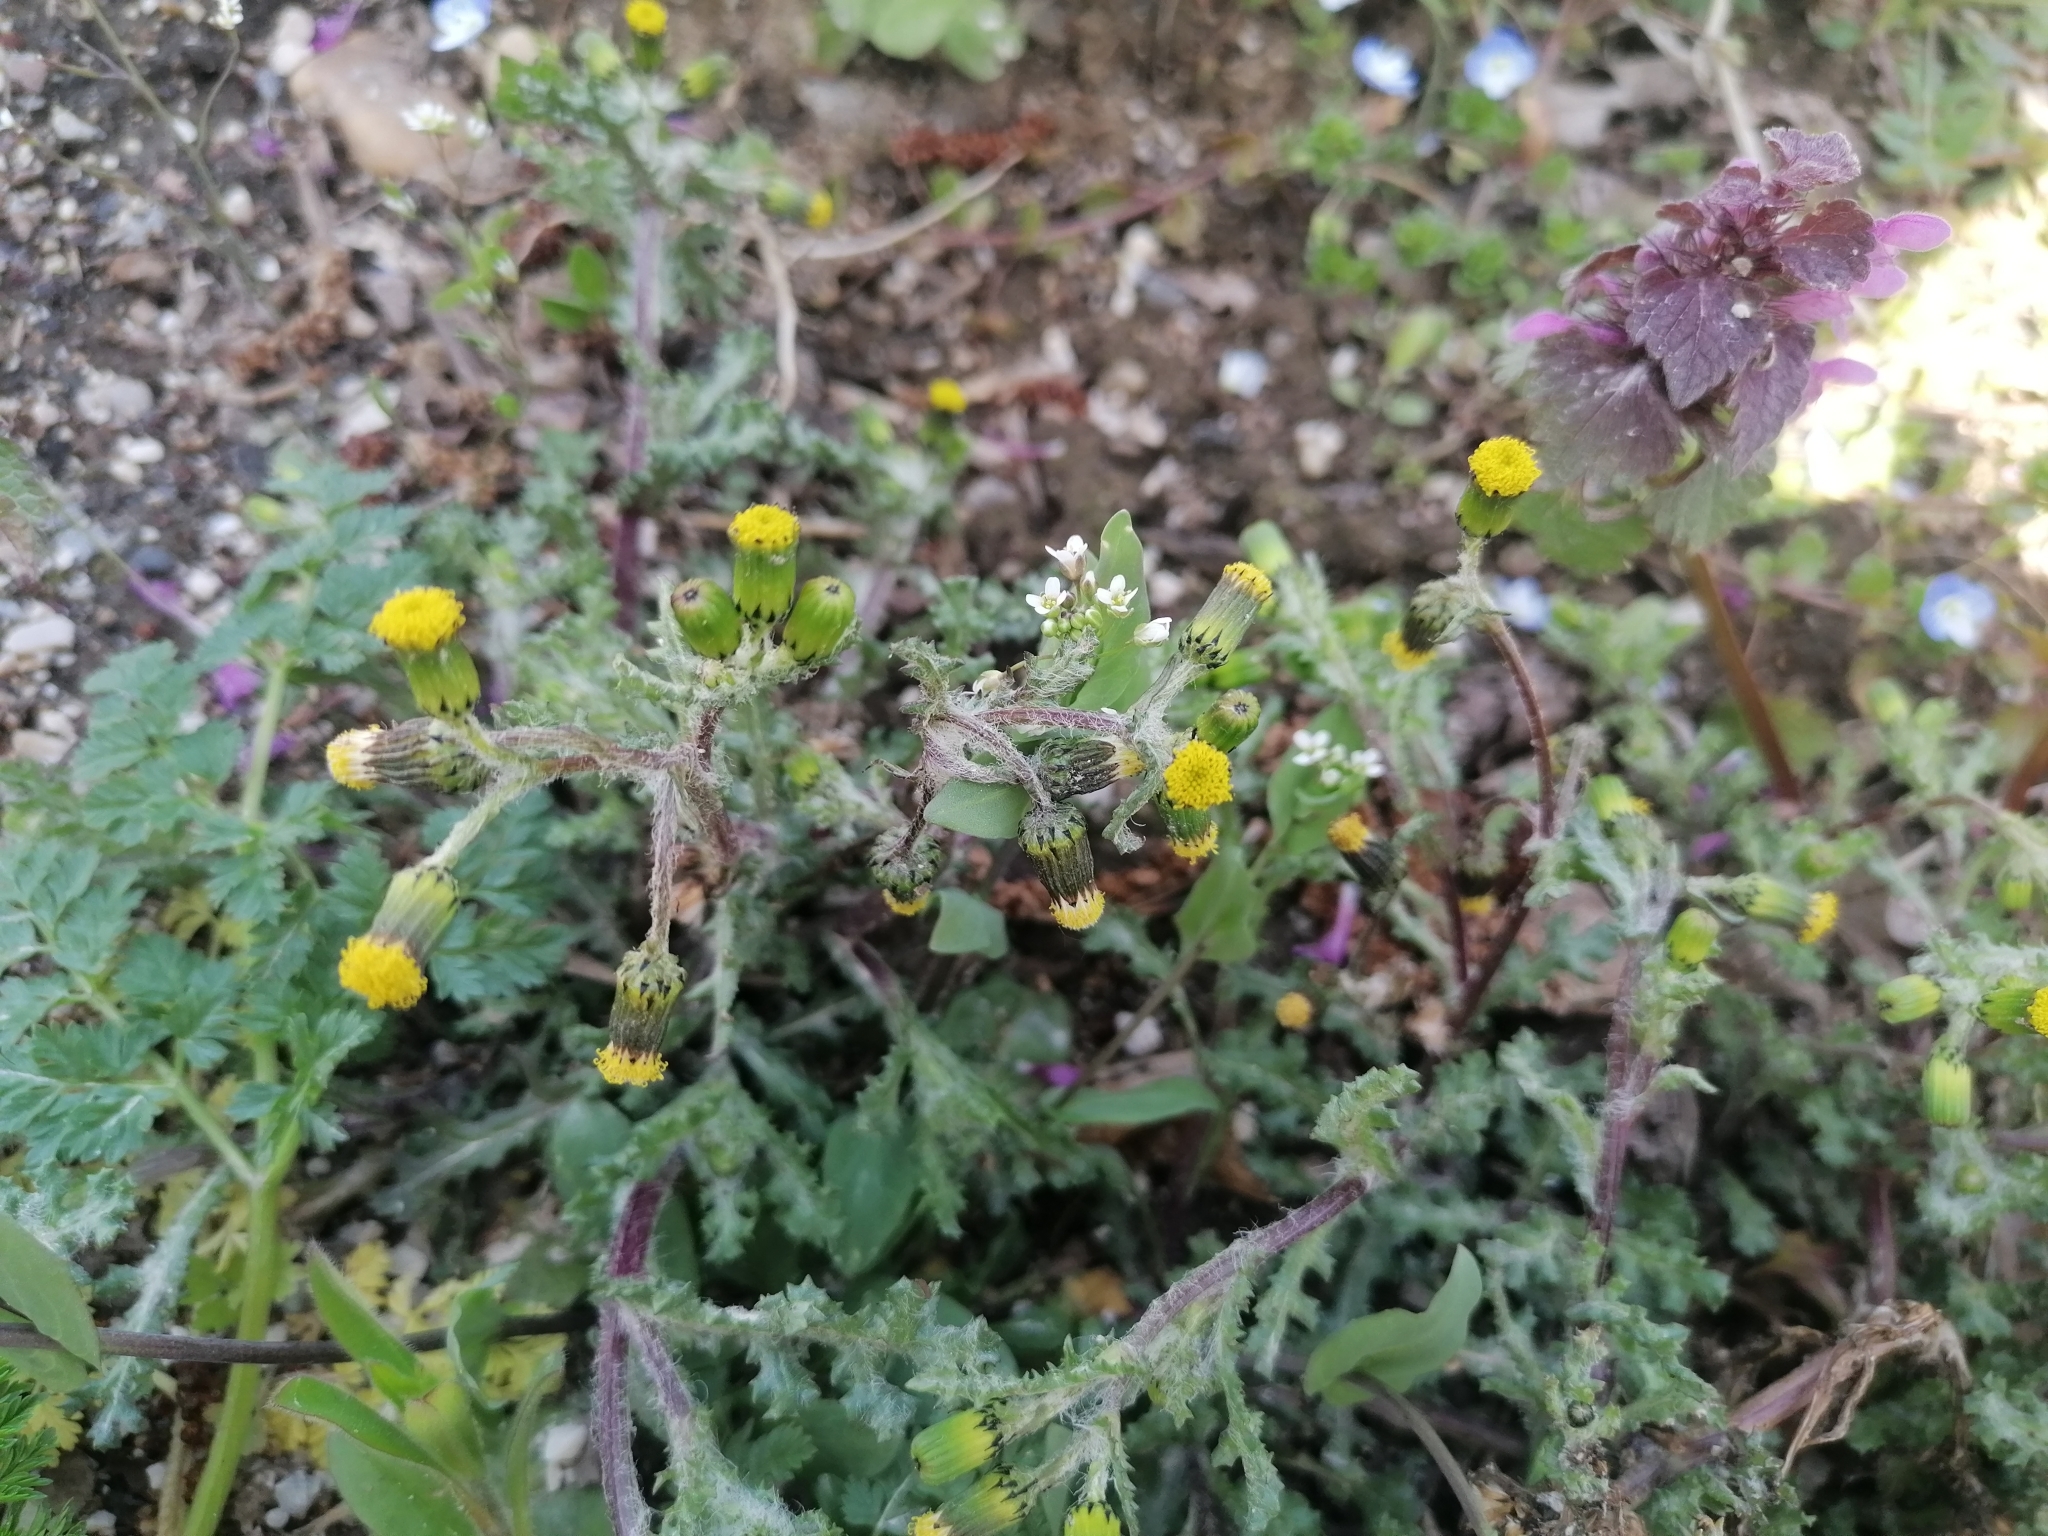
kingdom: Plantae
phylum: Tracheophyta
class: Magnoliopsida
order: Asterales
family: Asteraceae
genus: Senecio
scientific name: Senecio vulgaris
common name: Old-man-in-the-spring
